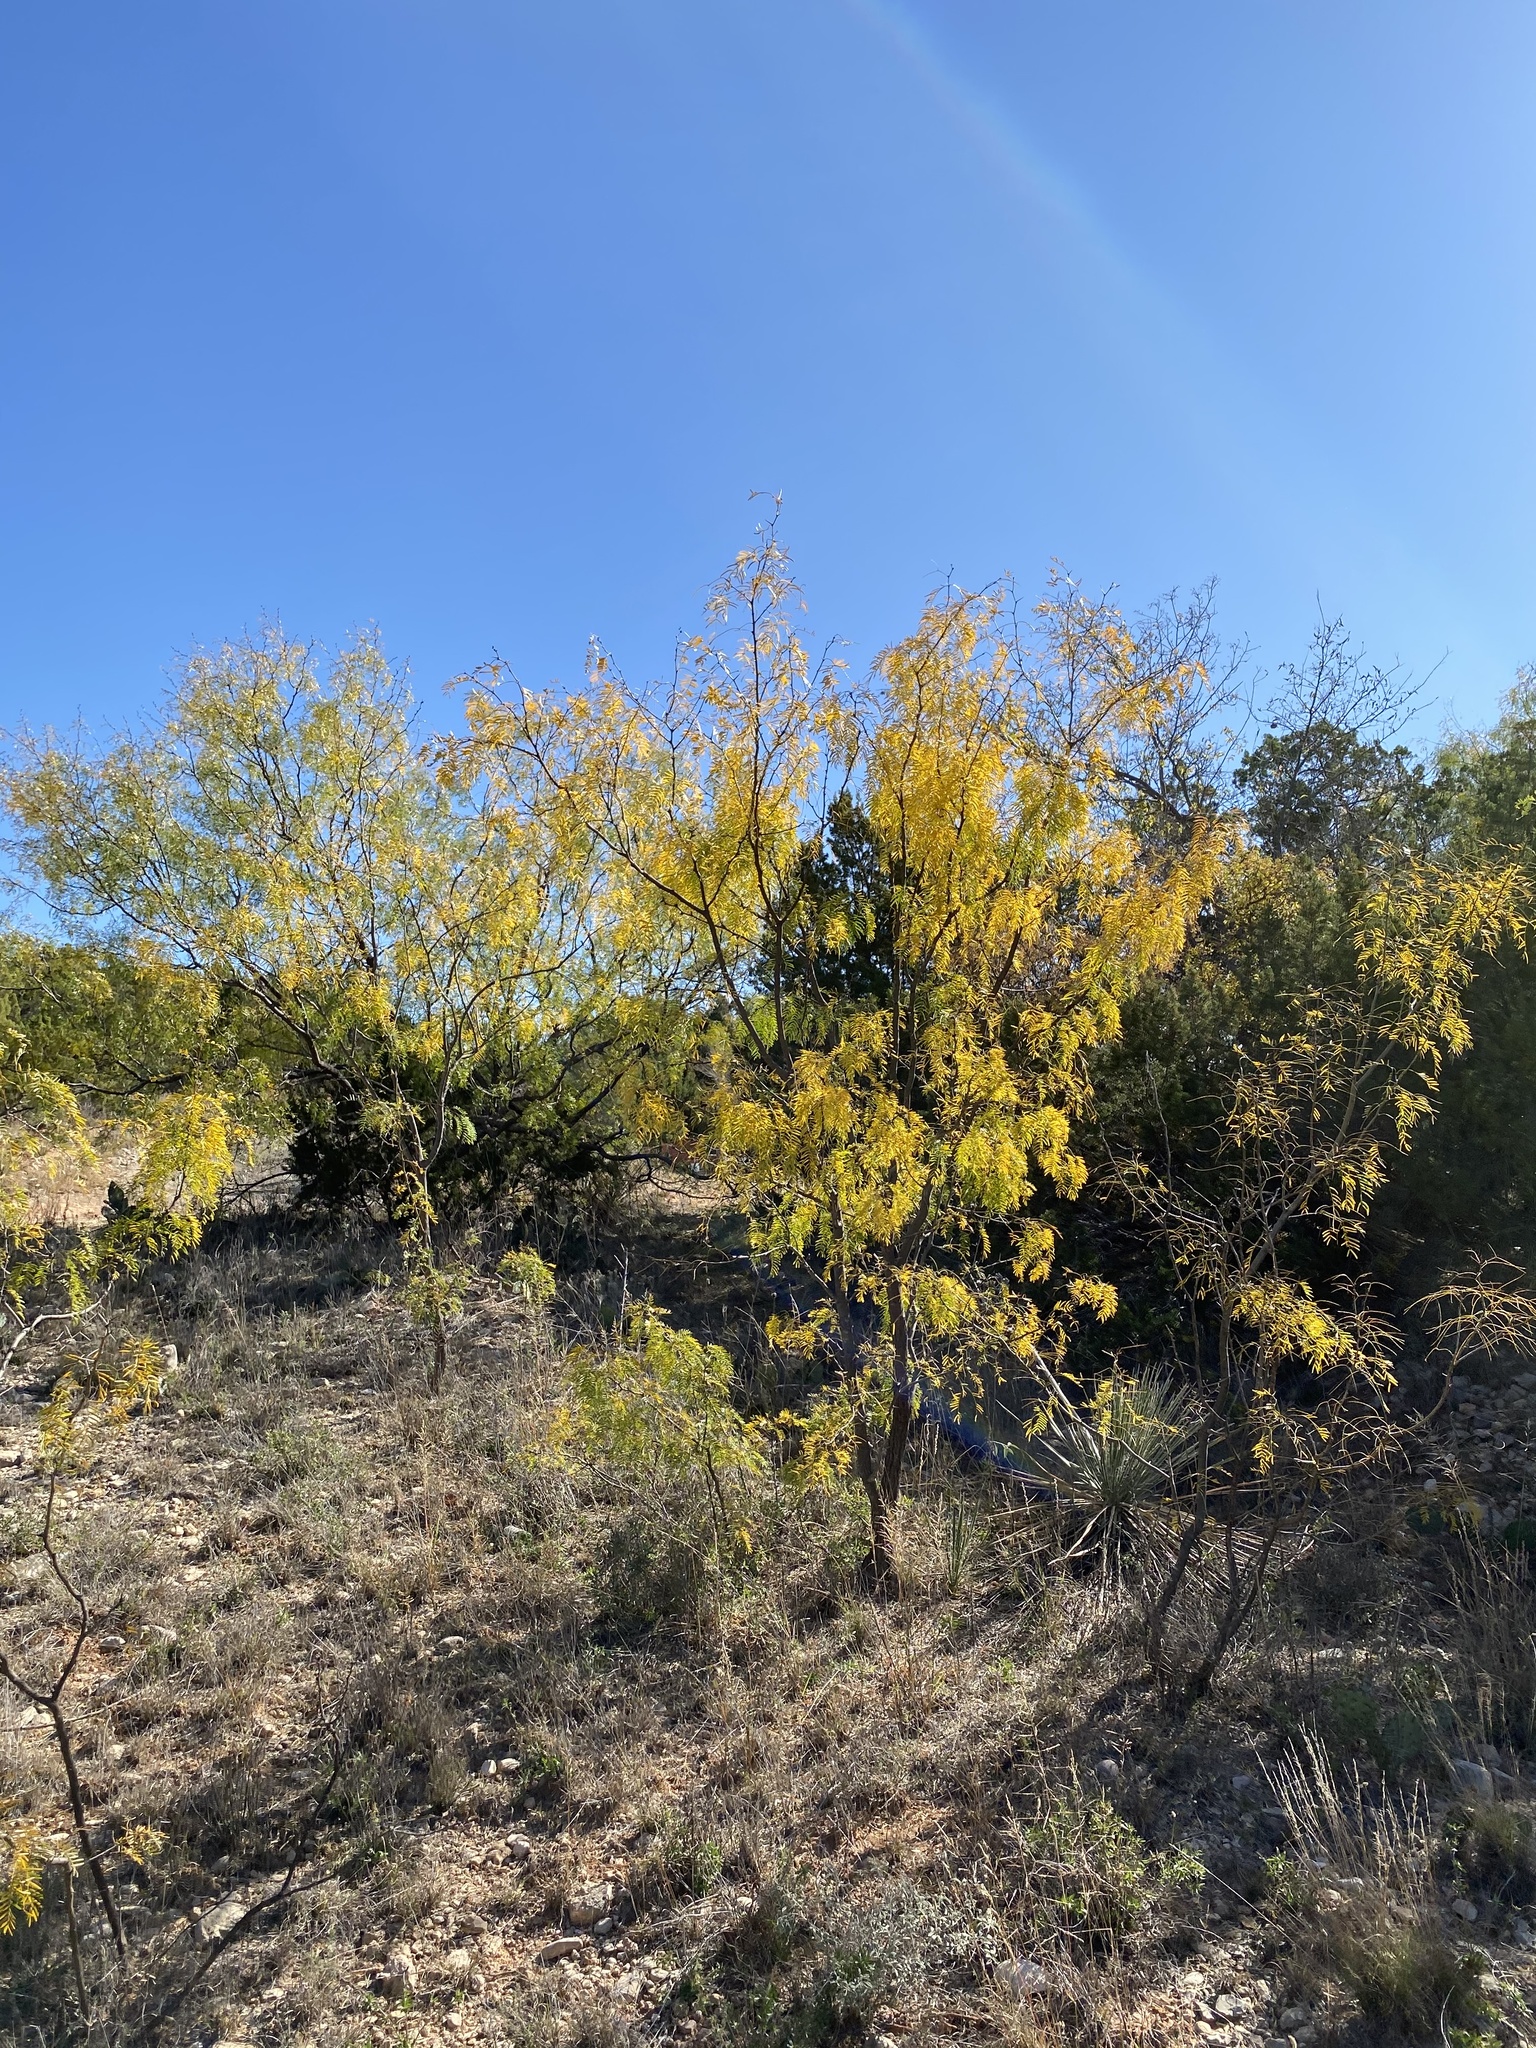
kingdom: Plantae
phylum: Tracheophyta
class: Magnoliopsida
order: Fabales
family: Fabaceae
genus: Prosopis
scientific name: Prosopis glandulosa
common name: Honey mesquite
